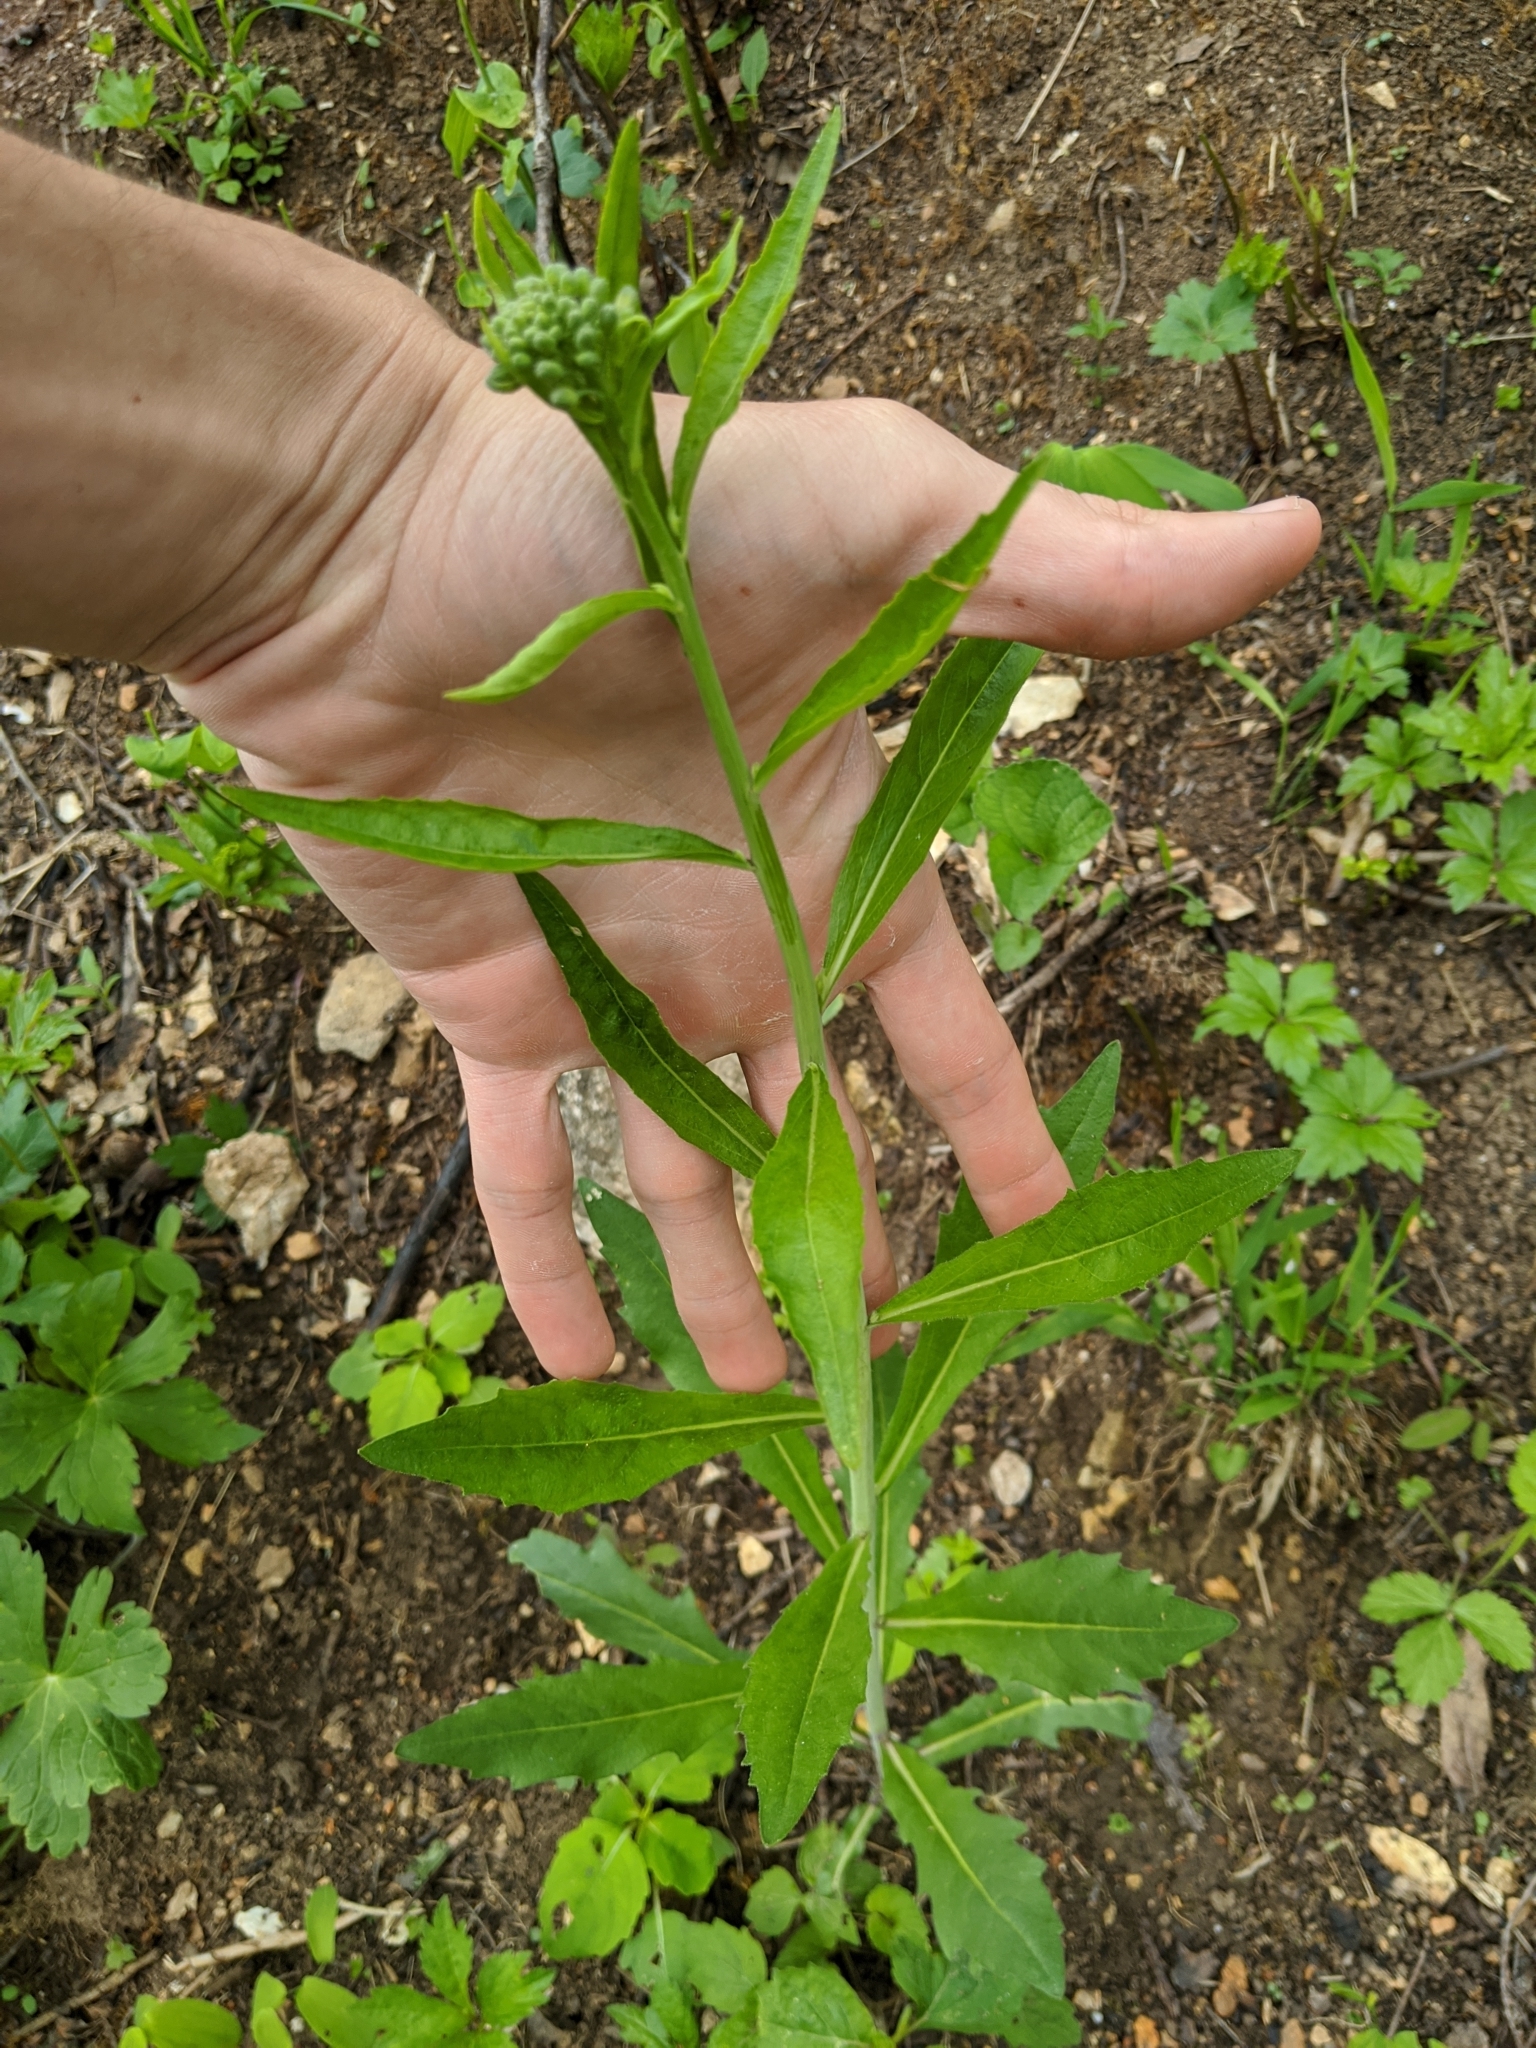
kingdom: Plantae
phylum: Tracheophyta
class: Magnoliopsida
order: Brassicales
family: Brassicaceae
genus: Borodinia
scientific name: Borodinia canadensis
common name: Sicklepod
